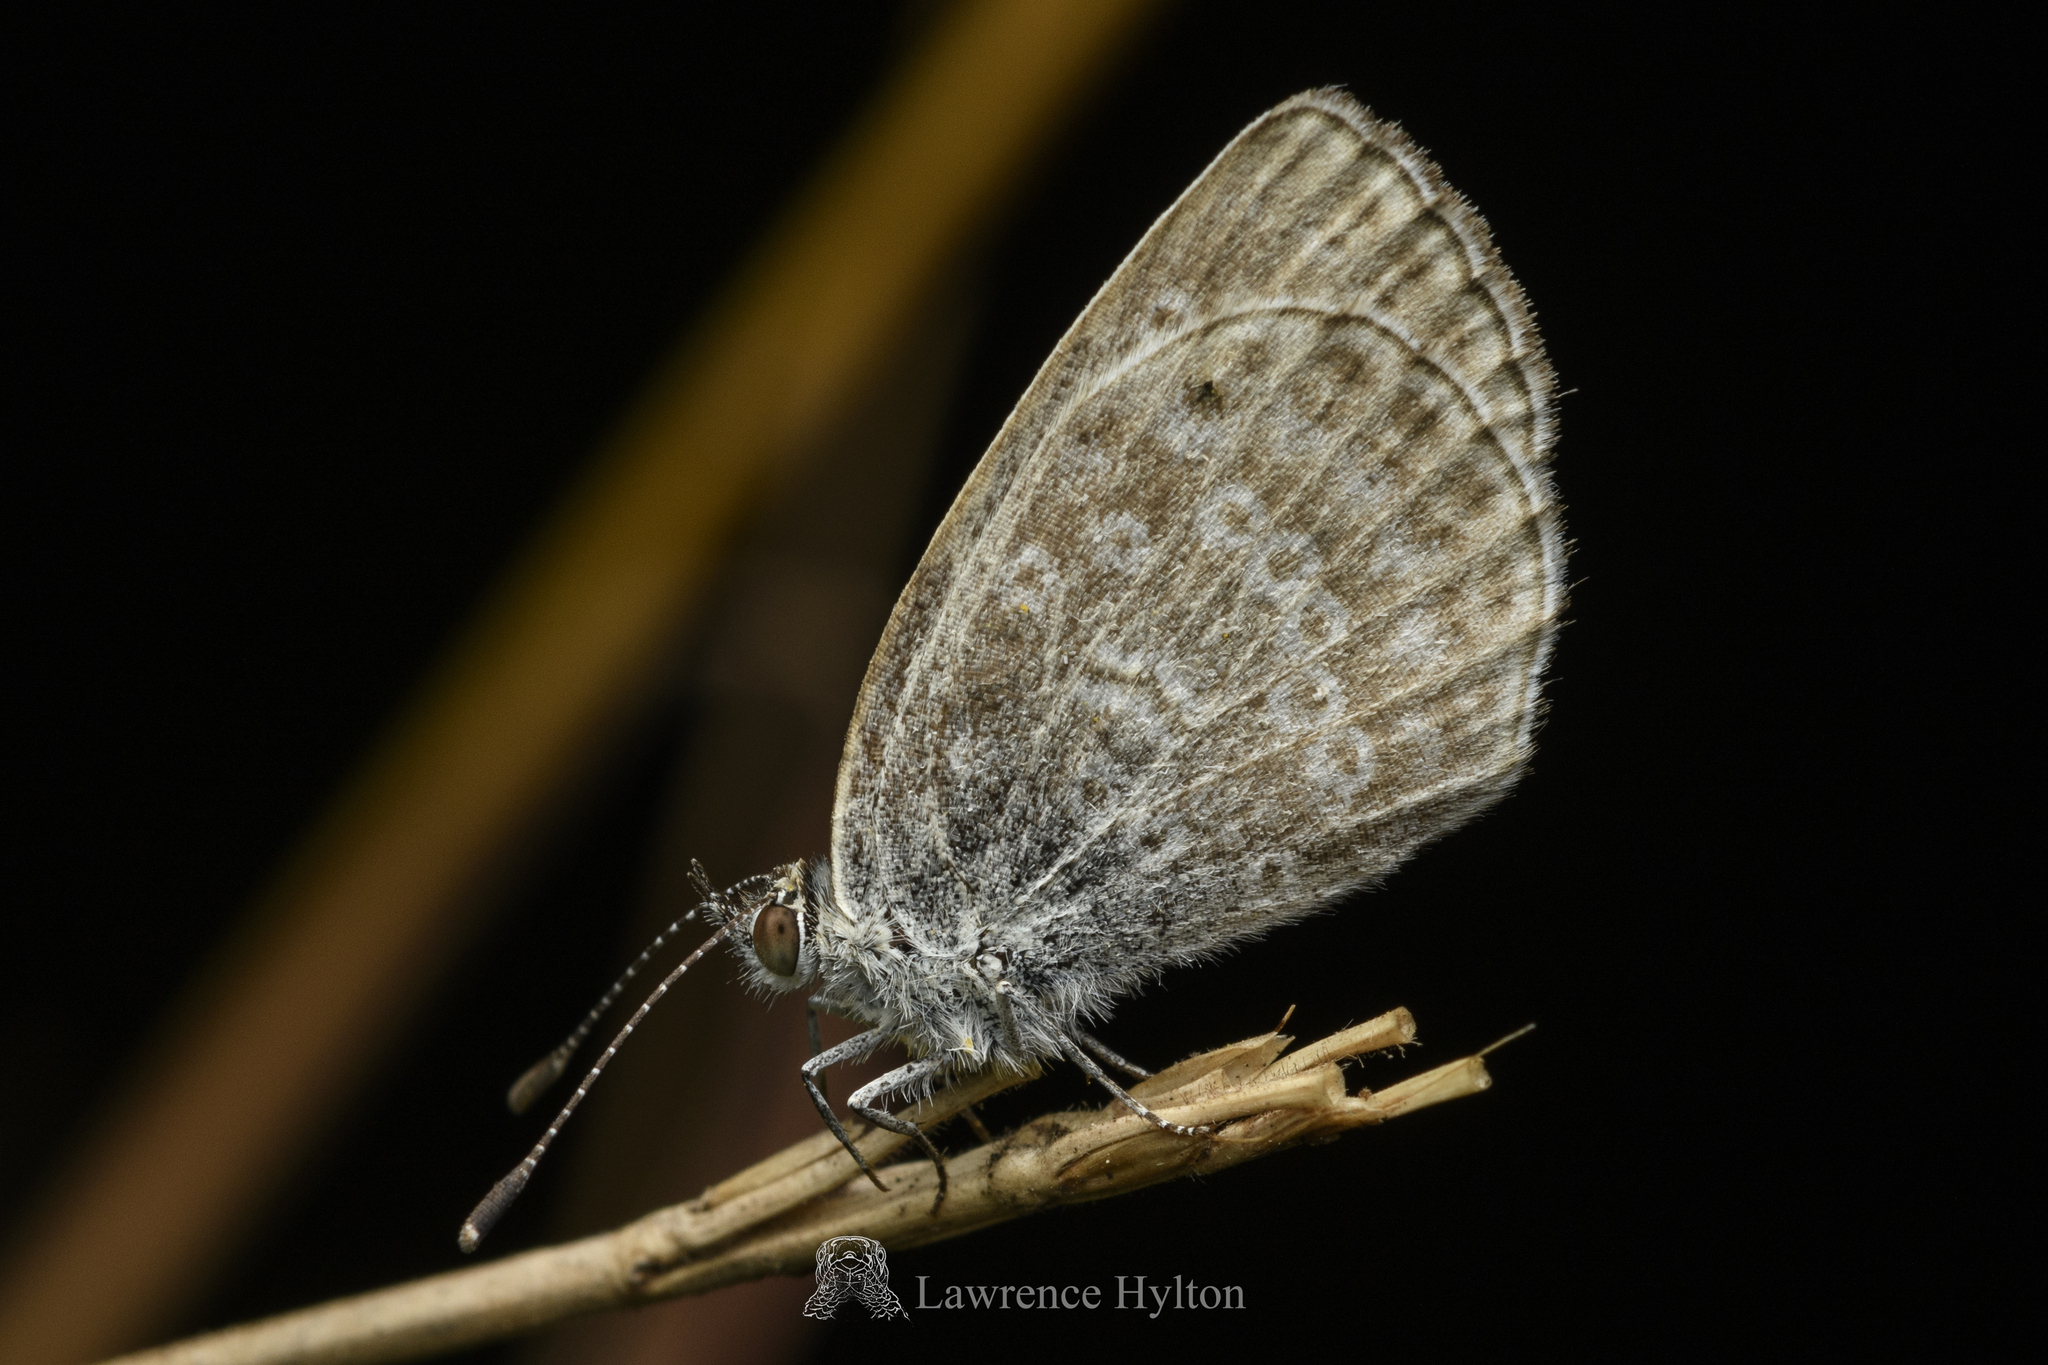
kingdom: Animalia
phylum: Arthropoda
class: Insecta
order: Lepidoptera
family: Lycaenidae
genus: Pseudozizeeria
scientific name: Pseudozizeeria maha
